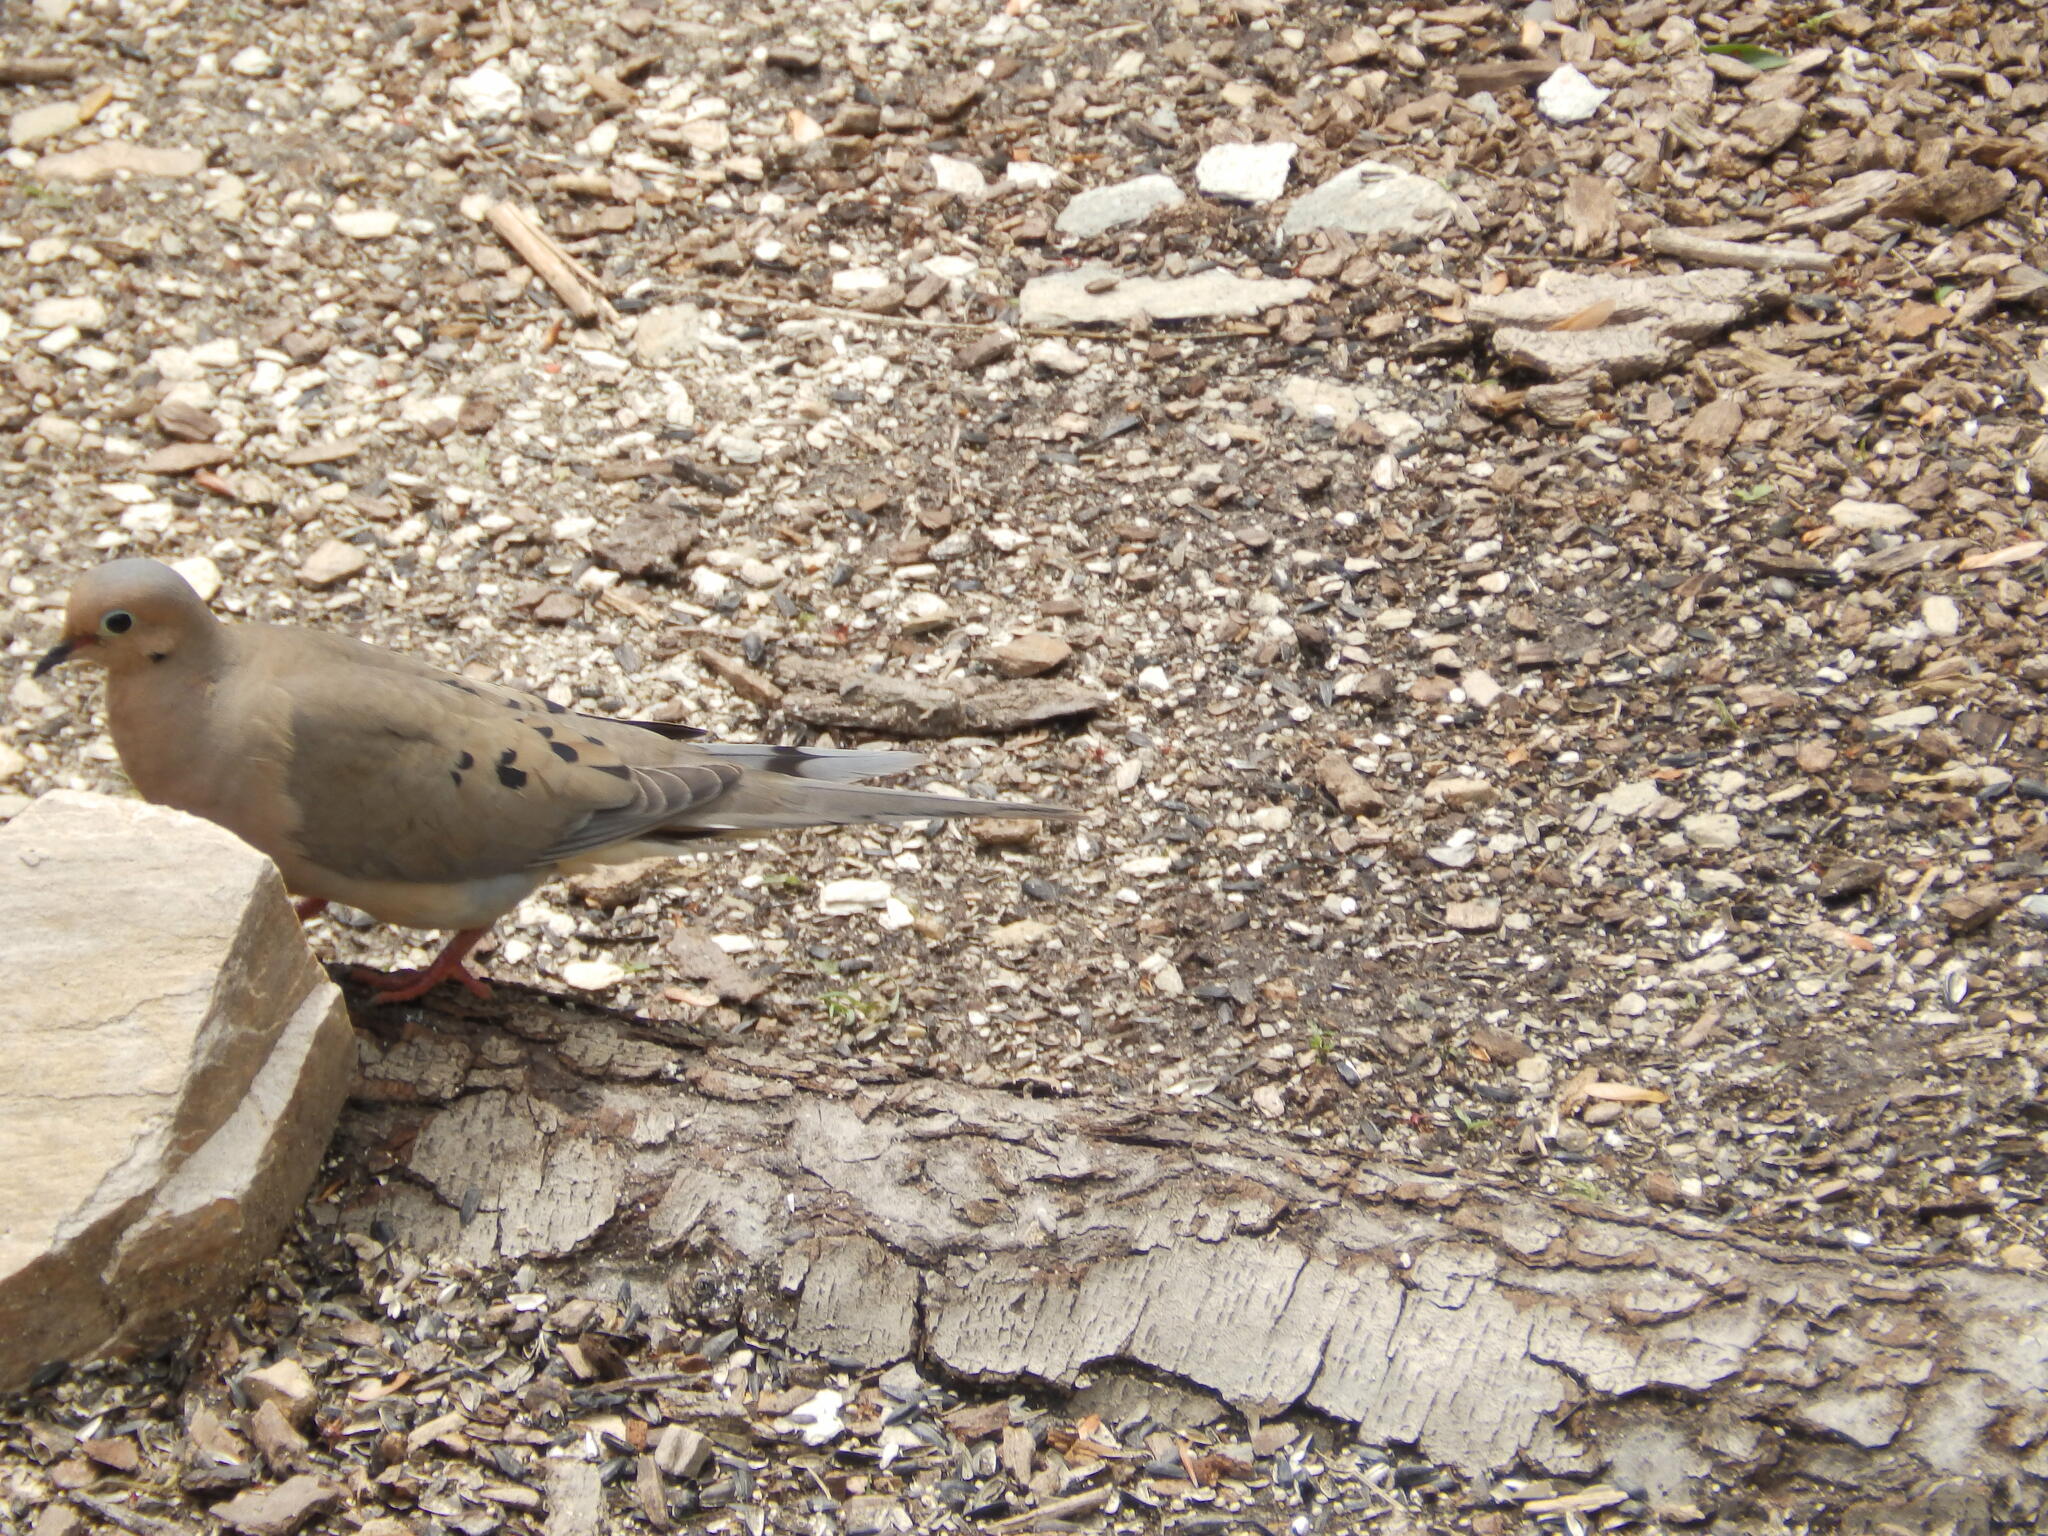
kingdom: Animalia
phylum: Chordata
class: Aves
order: Columbiformes
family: Columbidae
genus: Zenaida
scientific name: Zenaida macroura
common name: Mourning dove
